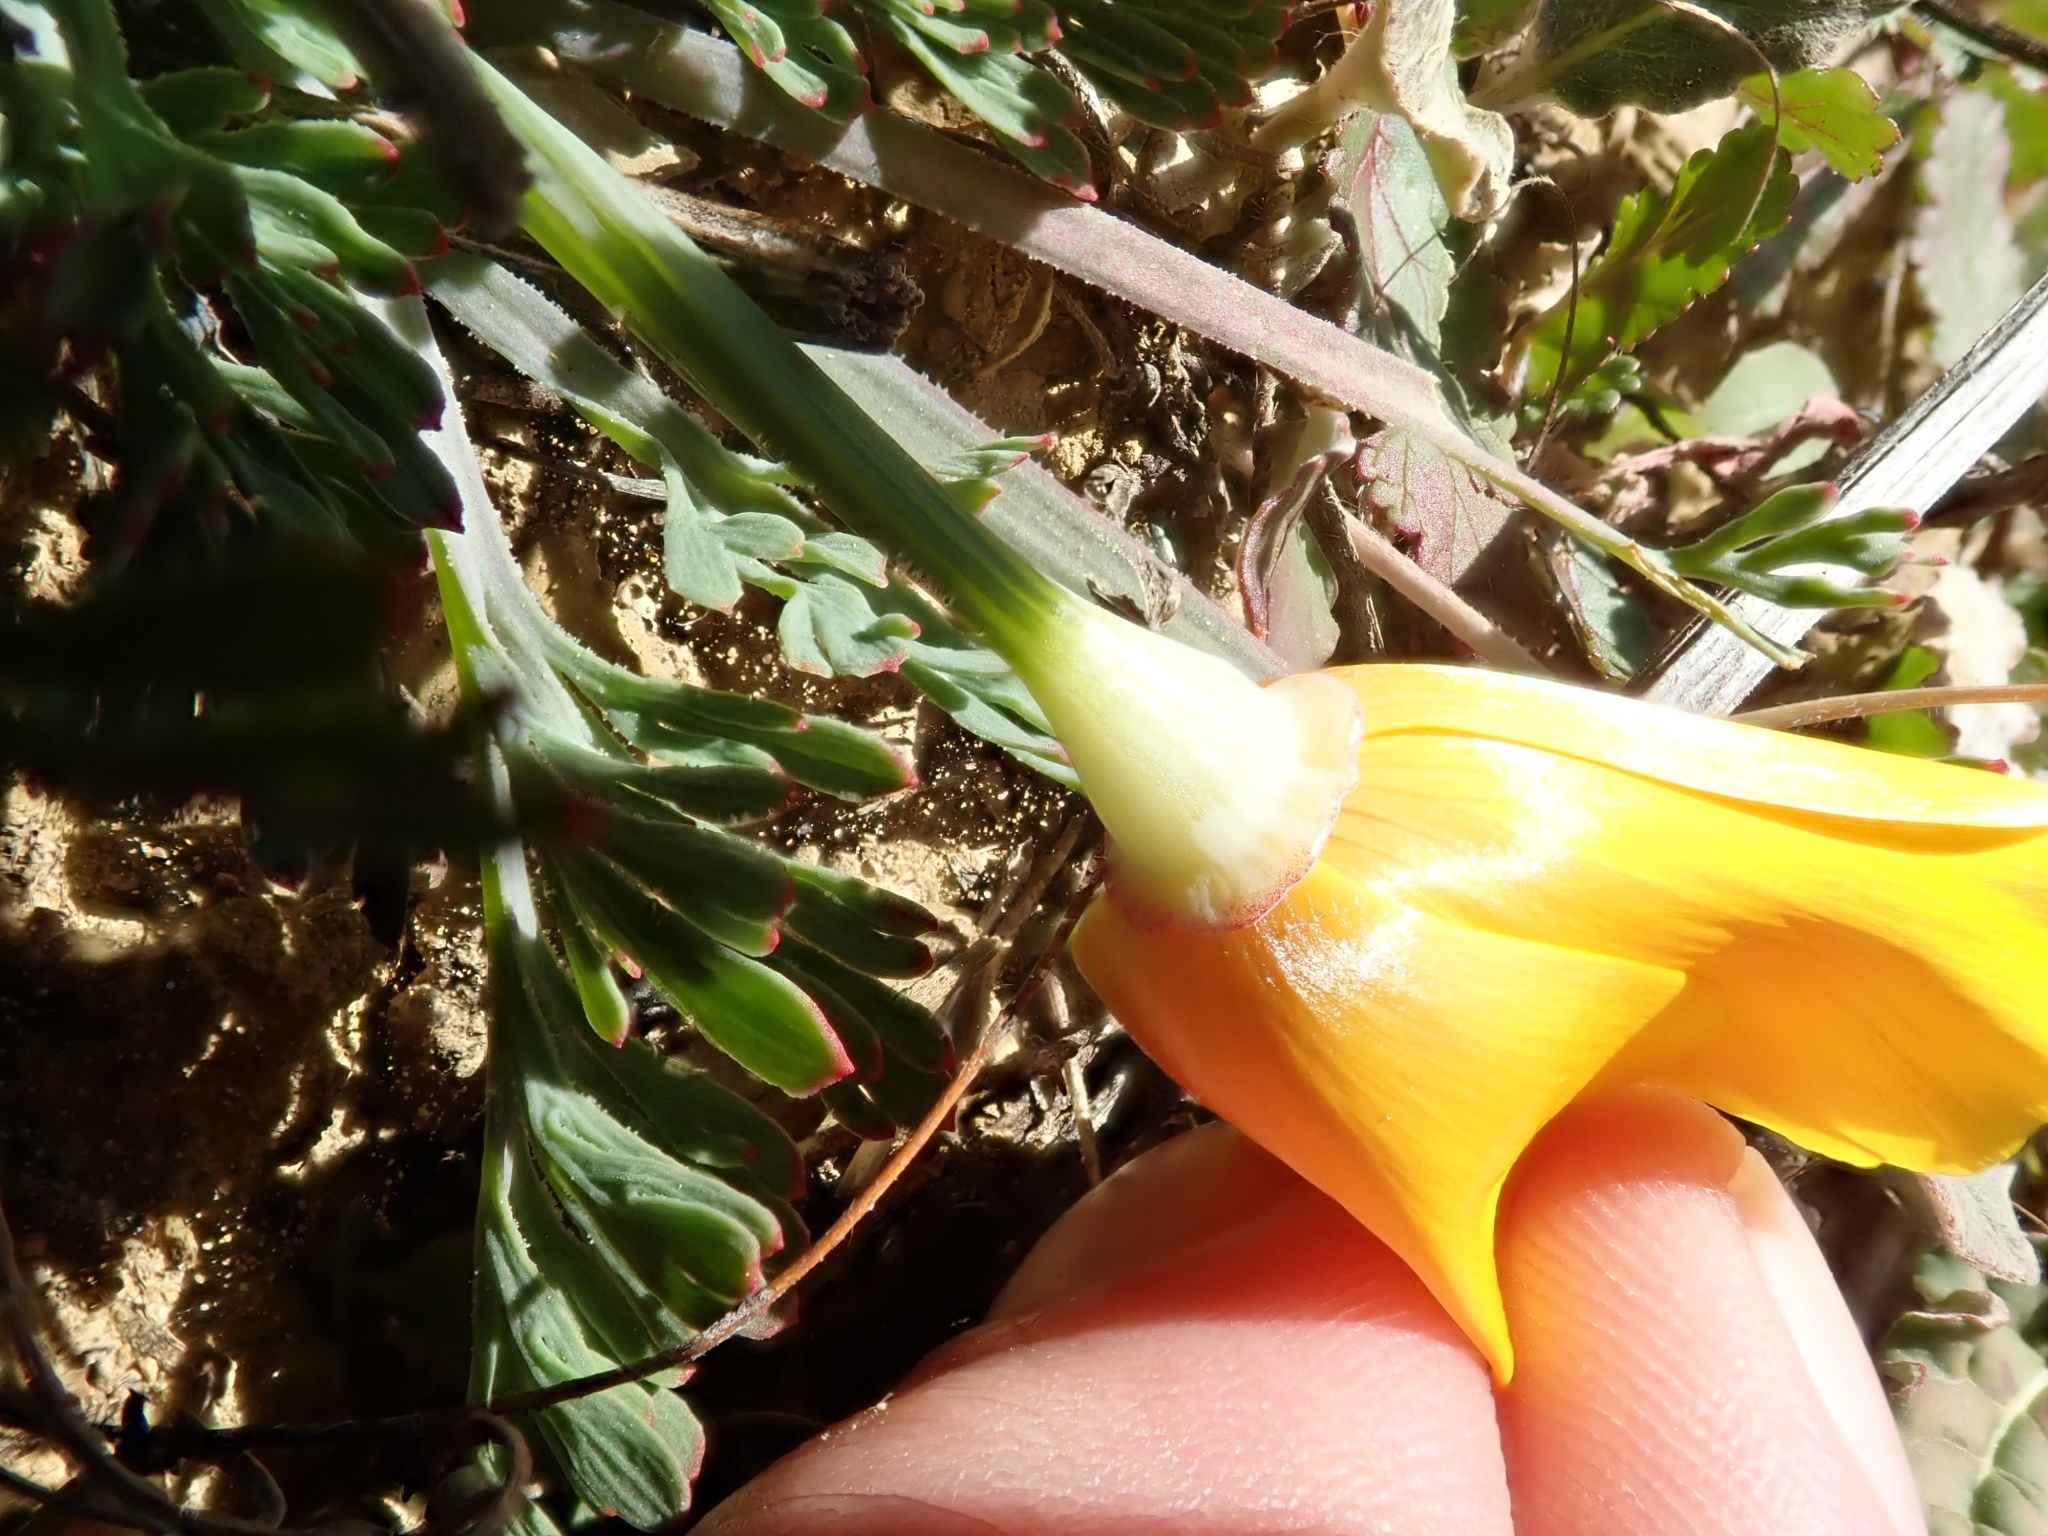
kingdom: Plantae
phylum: Tracheophyta
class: Magnoliopsida
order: Ranunculales
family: Papaveraceae
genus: Eschscholzia
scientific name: Eschscholzia californica
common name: California poppy
